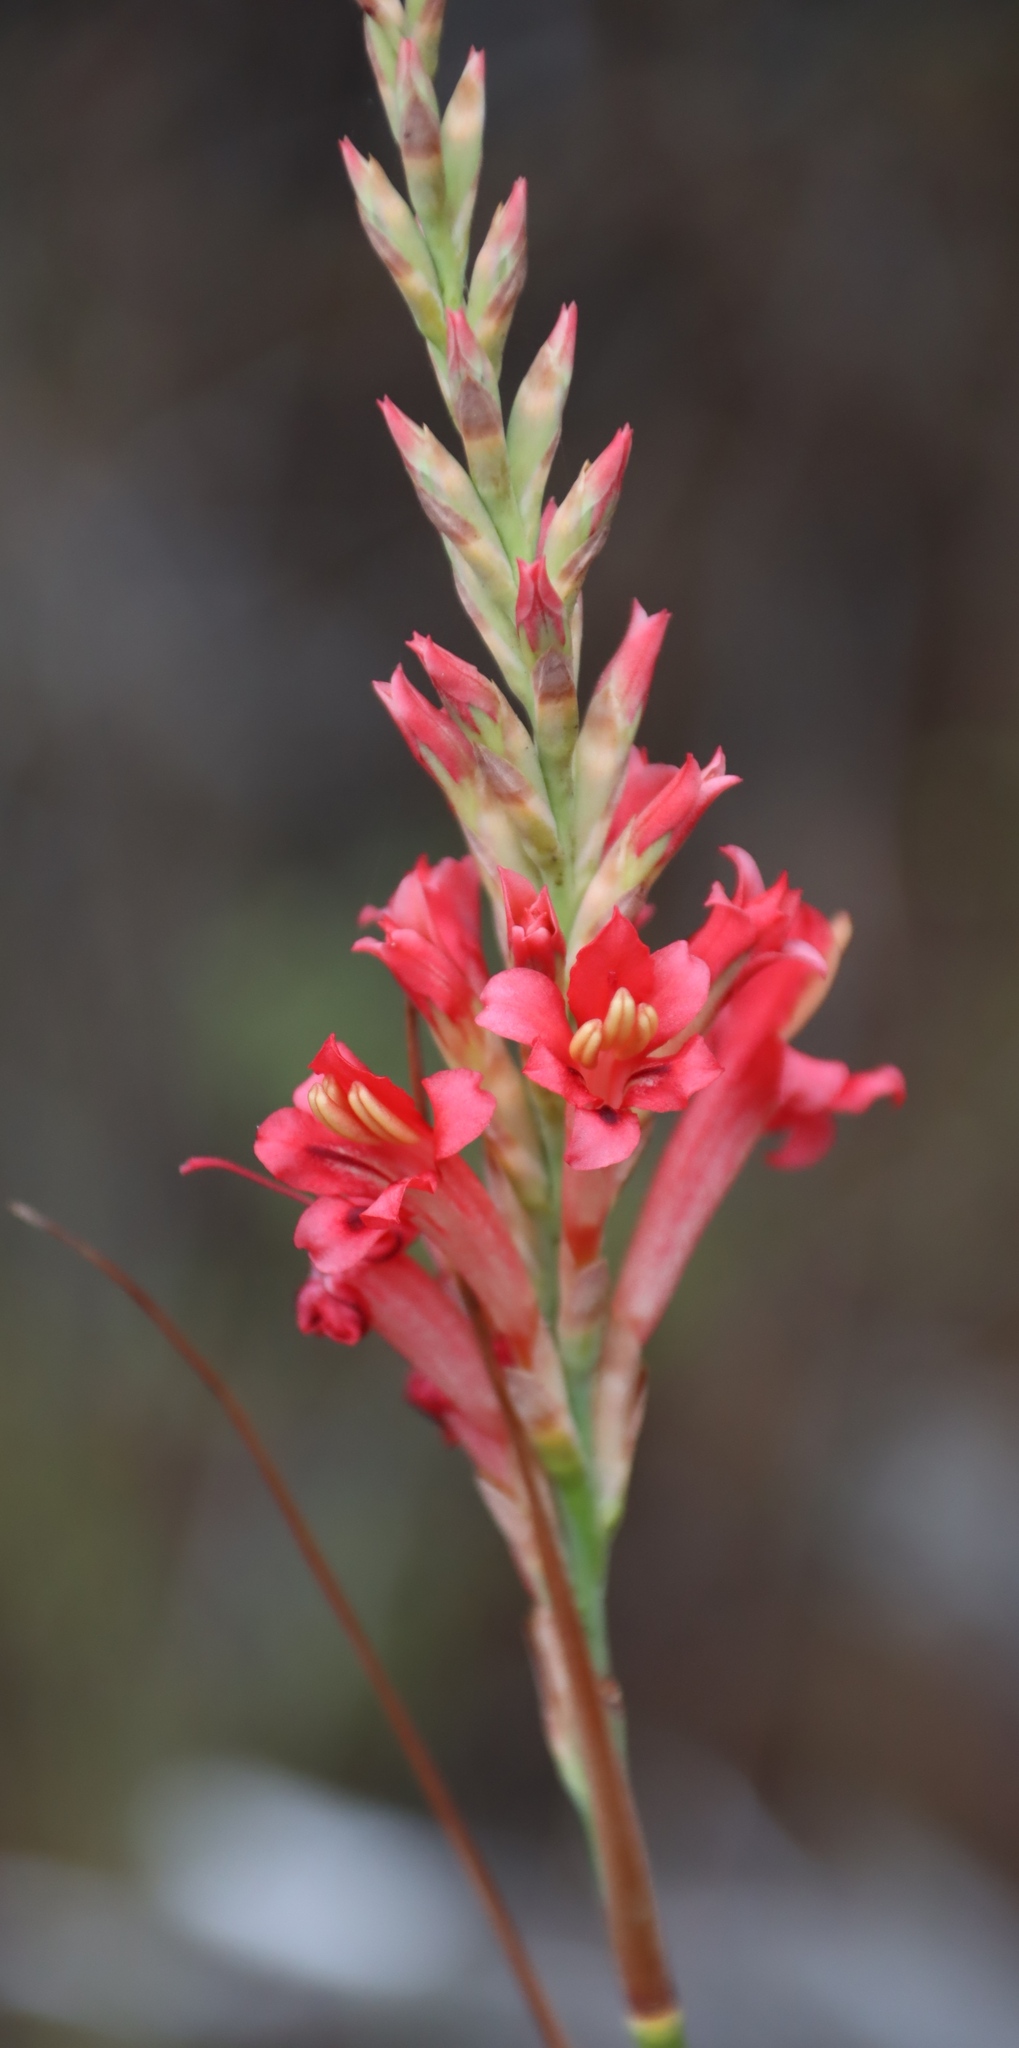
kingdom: Plantae
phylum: Tracheophyta
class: Liliopsida
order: Asparagales
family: Iridaceae
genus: Tritoniopsis
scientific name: Tritoniopsis triticea
